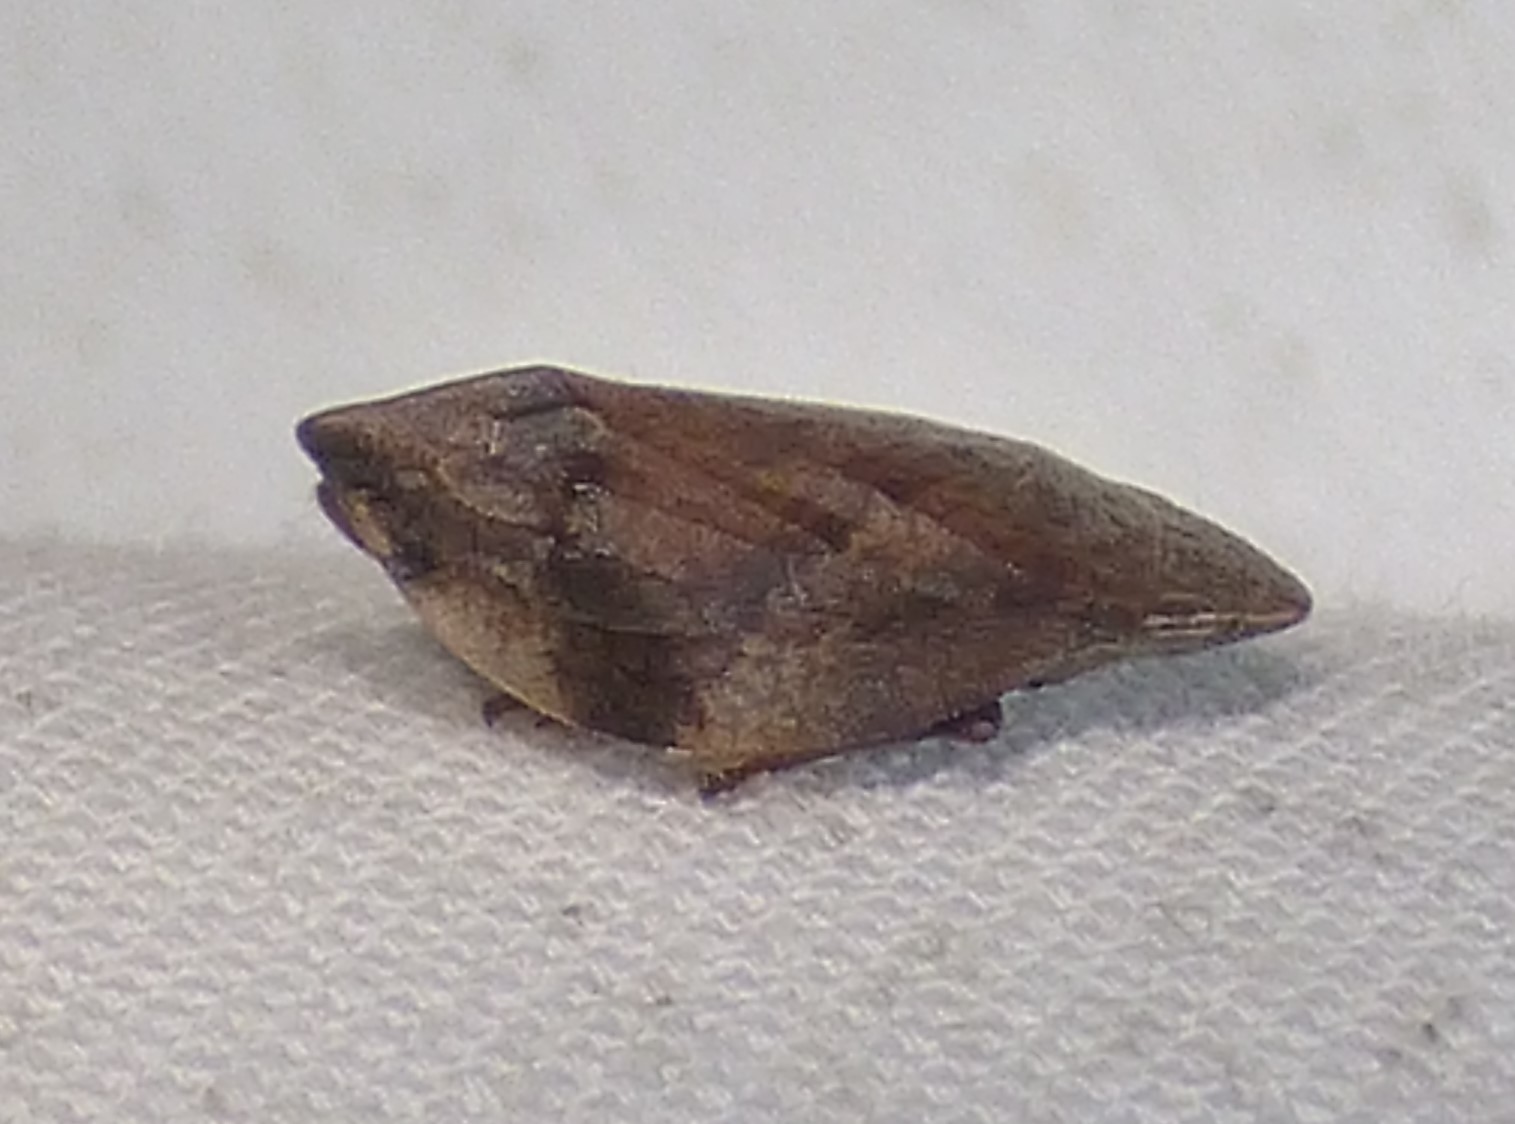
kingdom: Animalia
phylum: Arthropoda
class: Insecta
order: Hemiptera
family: Aphrophoridae
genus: Lepyronia
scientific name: Lepyronia quadrangularis
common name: Diamond-backed spittlebug
